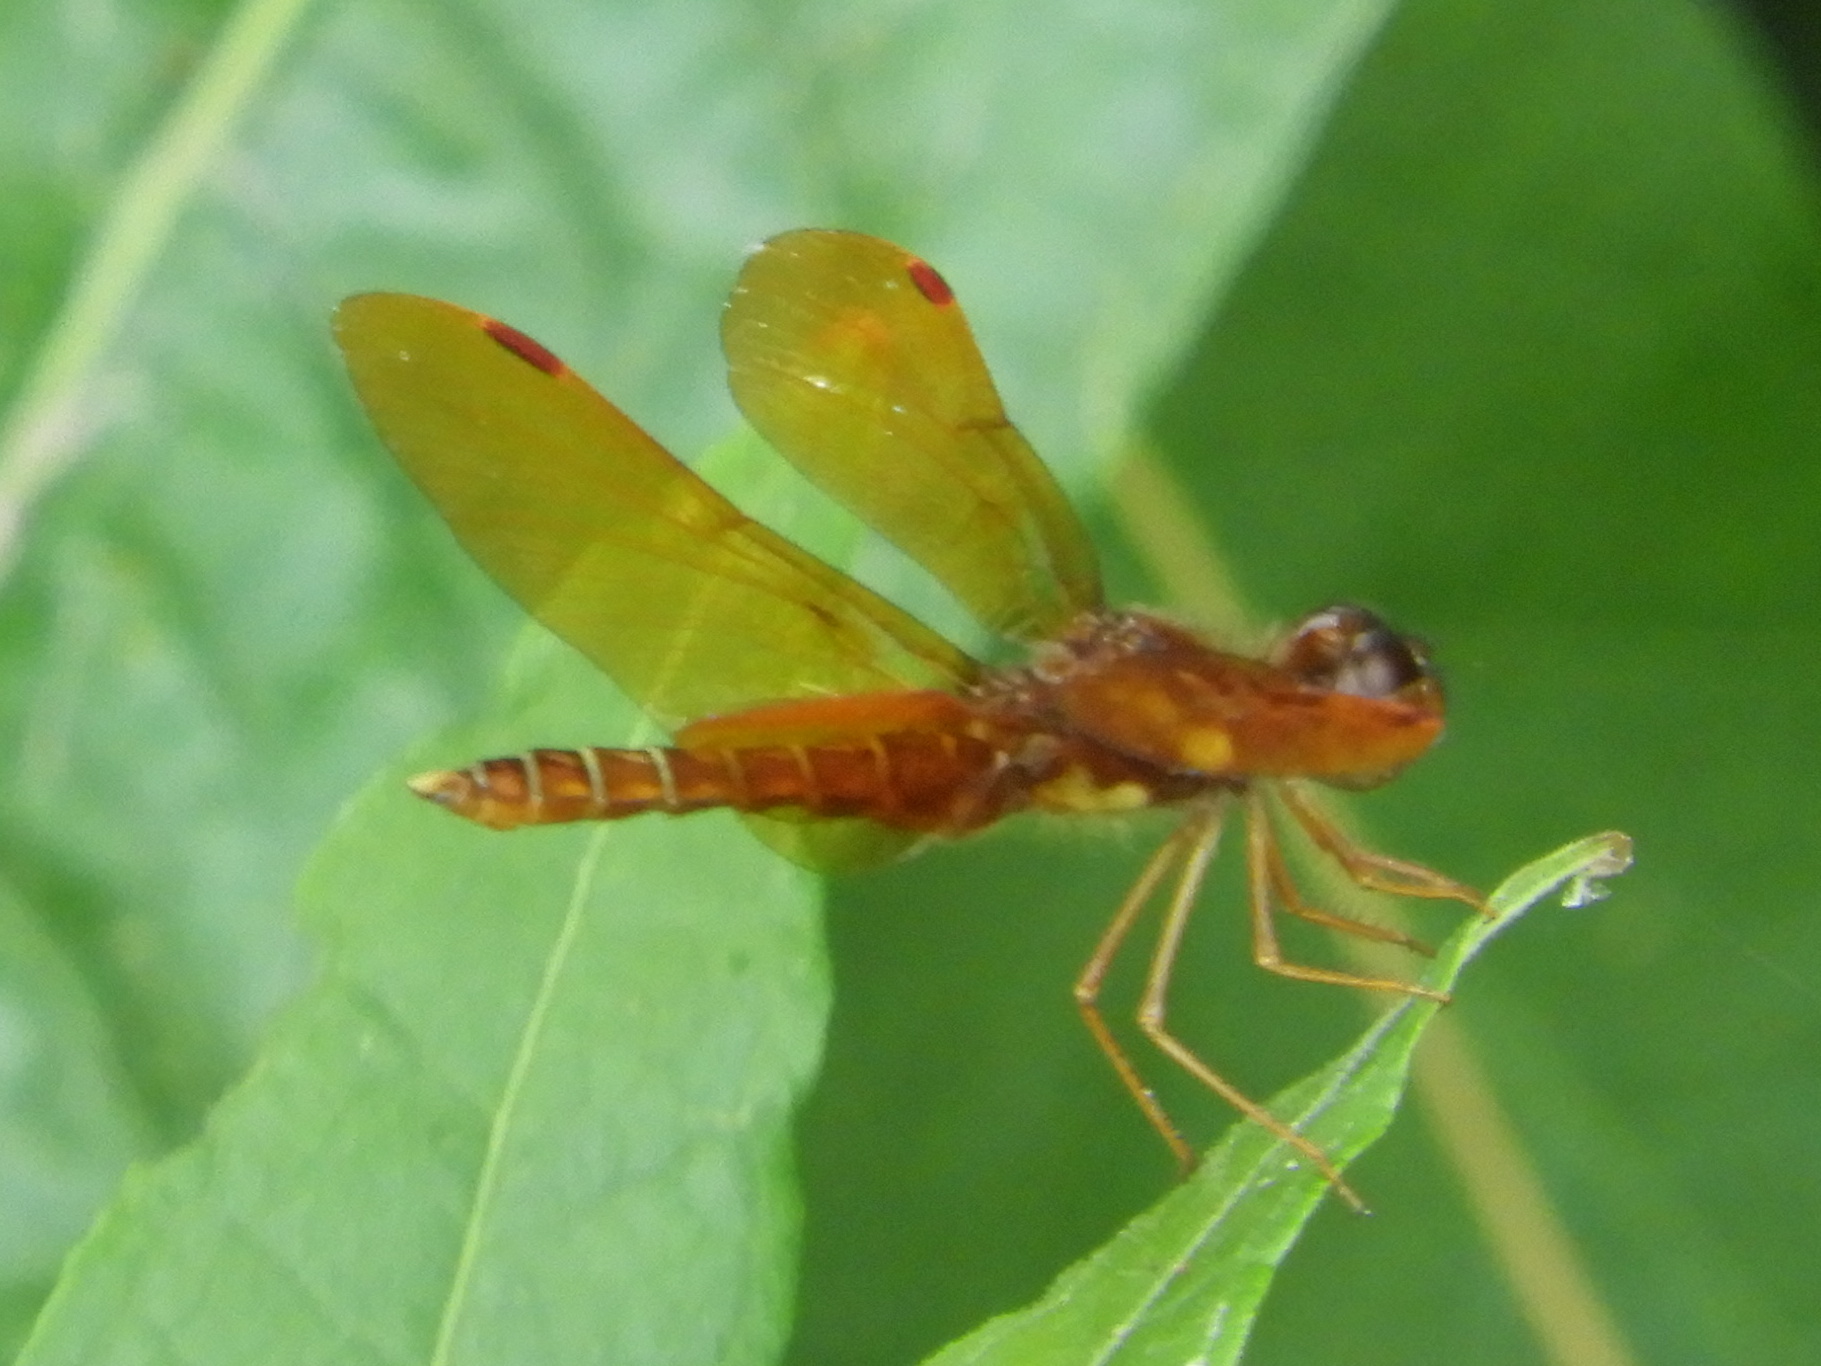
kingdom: Animalia
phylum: Arthropoda
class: Insecta
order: Odonata
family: Libellulidae
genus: Perithemis
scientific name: Perithemis tenera
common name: Eastern amberwing
